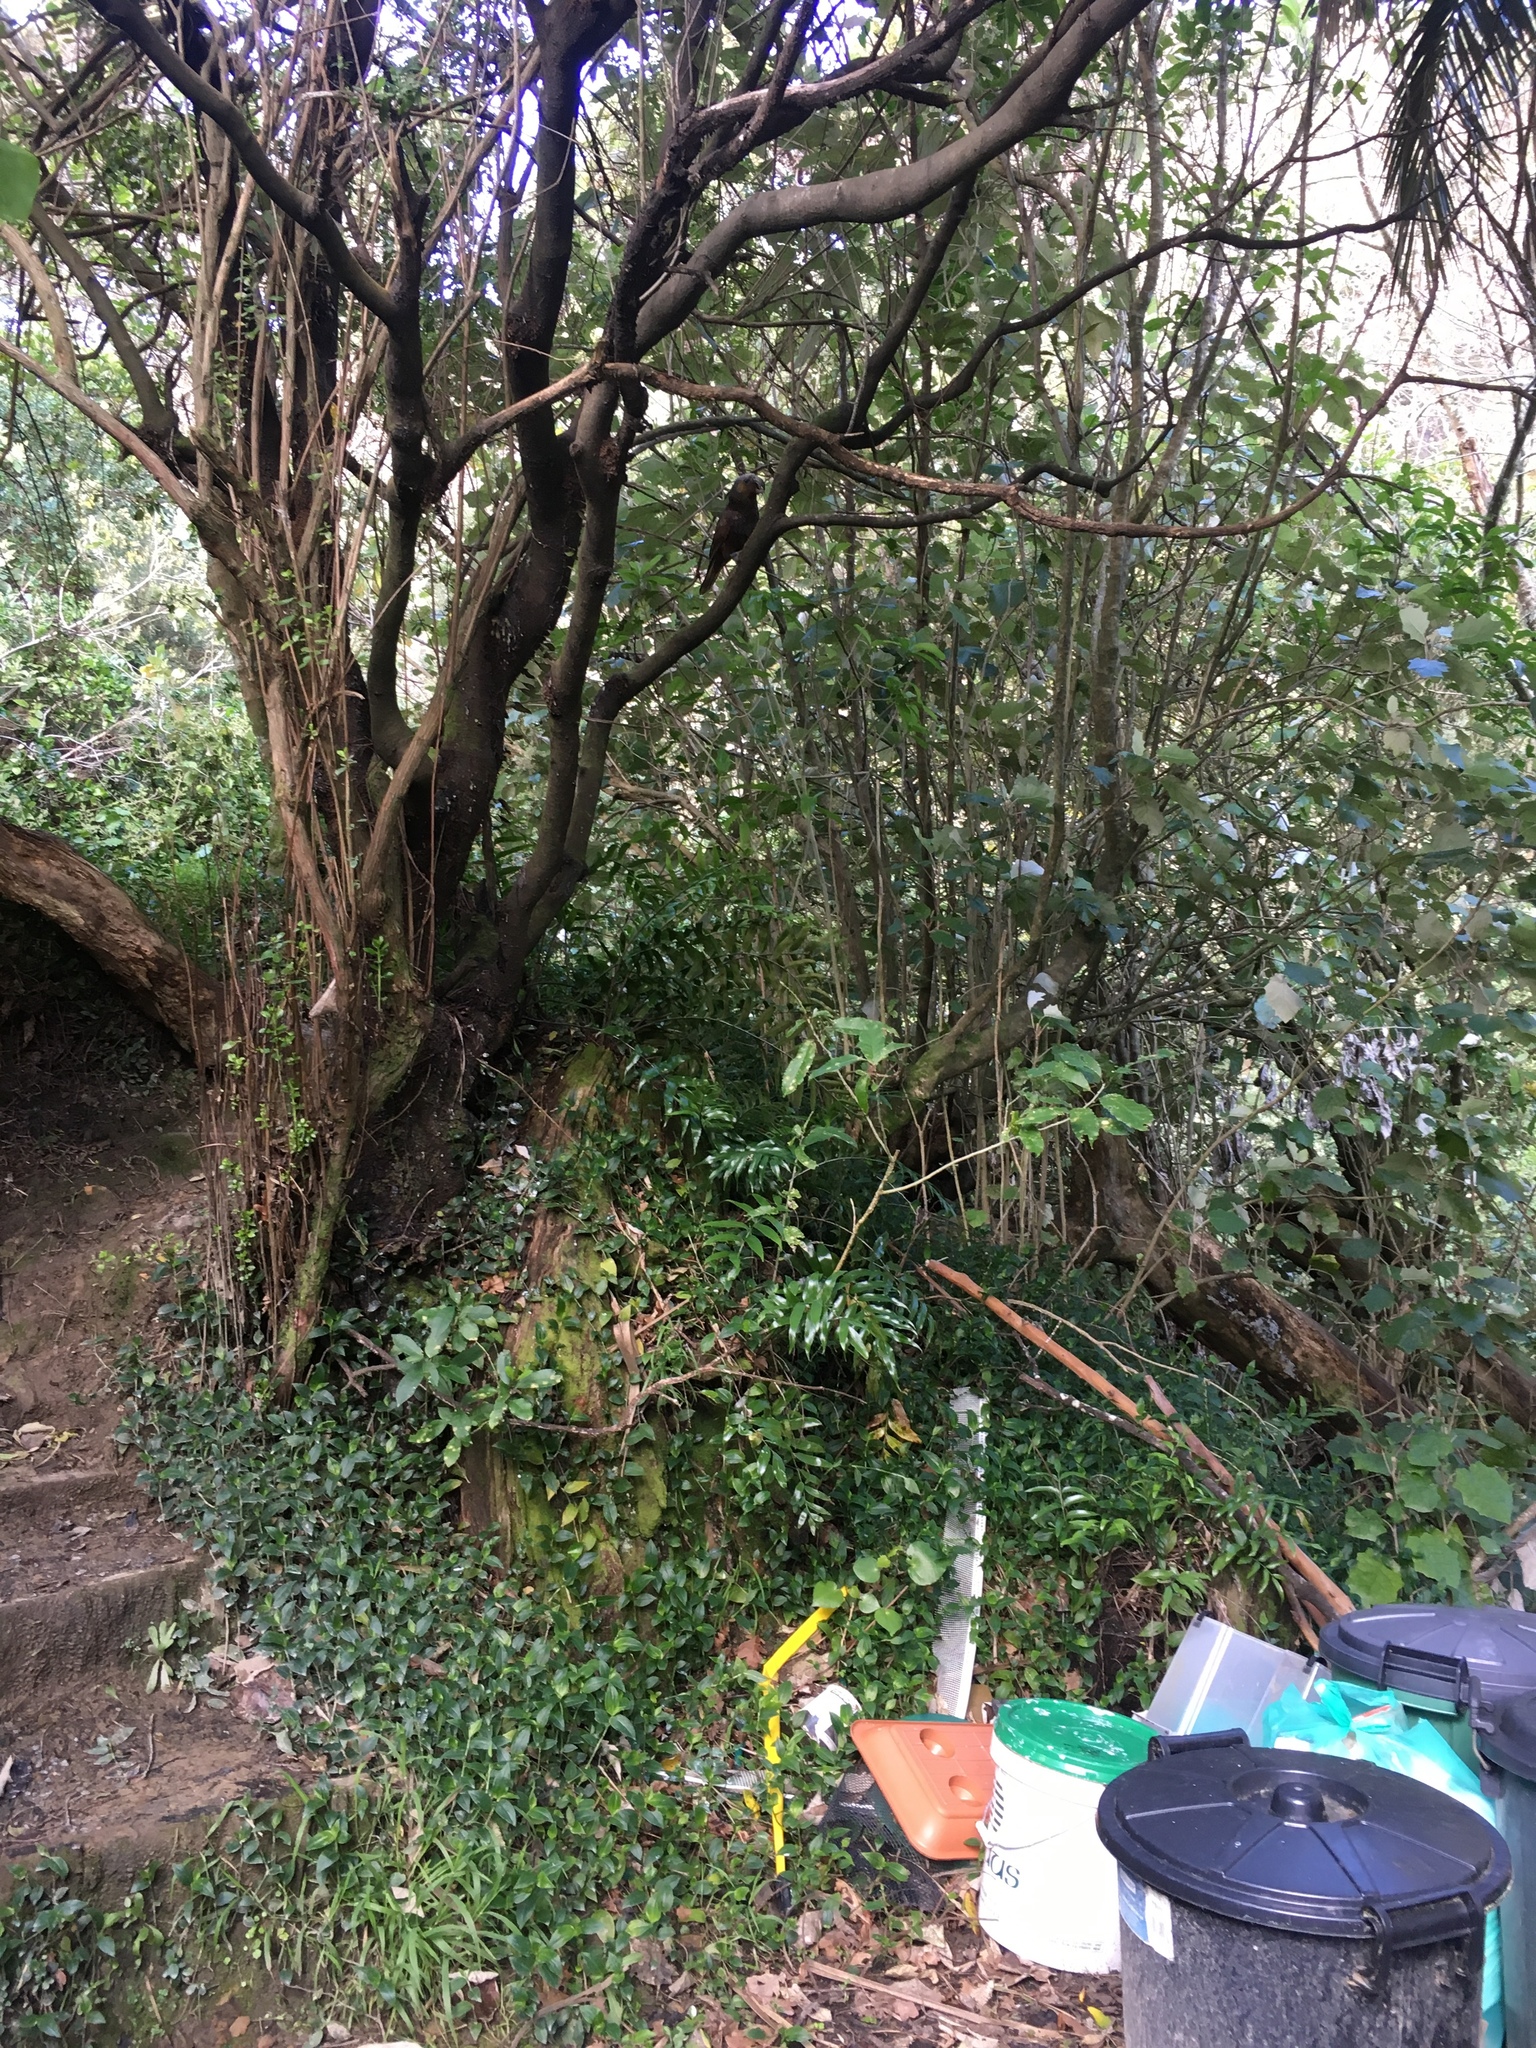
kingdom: Animalia
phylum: Chordata
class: Aves
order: Psittaciformes
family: Psittacidae
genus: Nestor
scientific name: Nestor meridionalis
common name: New zealand kaka
